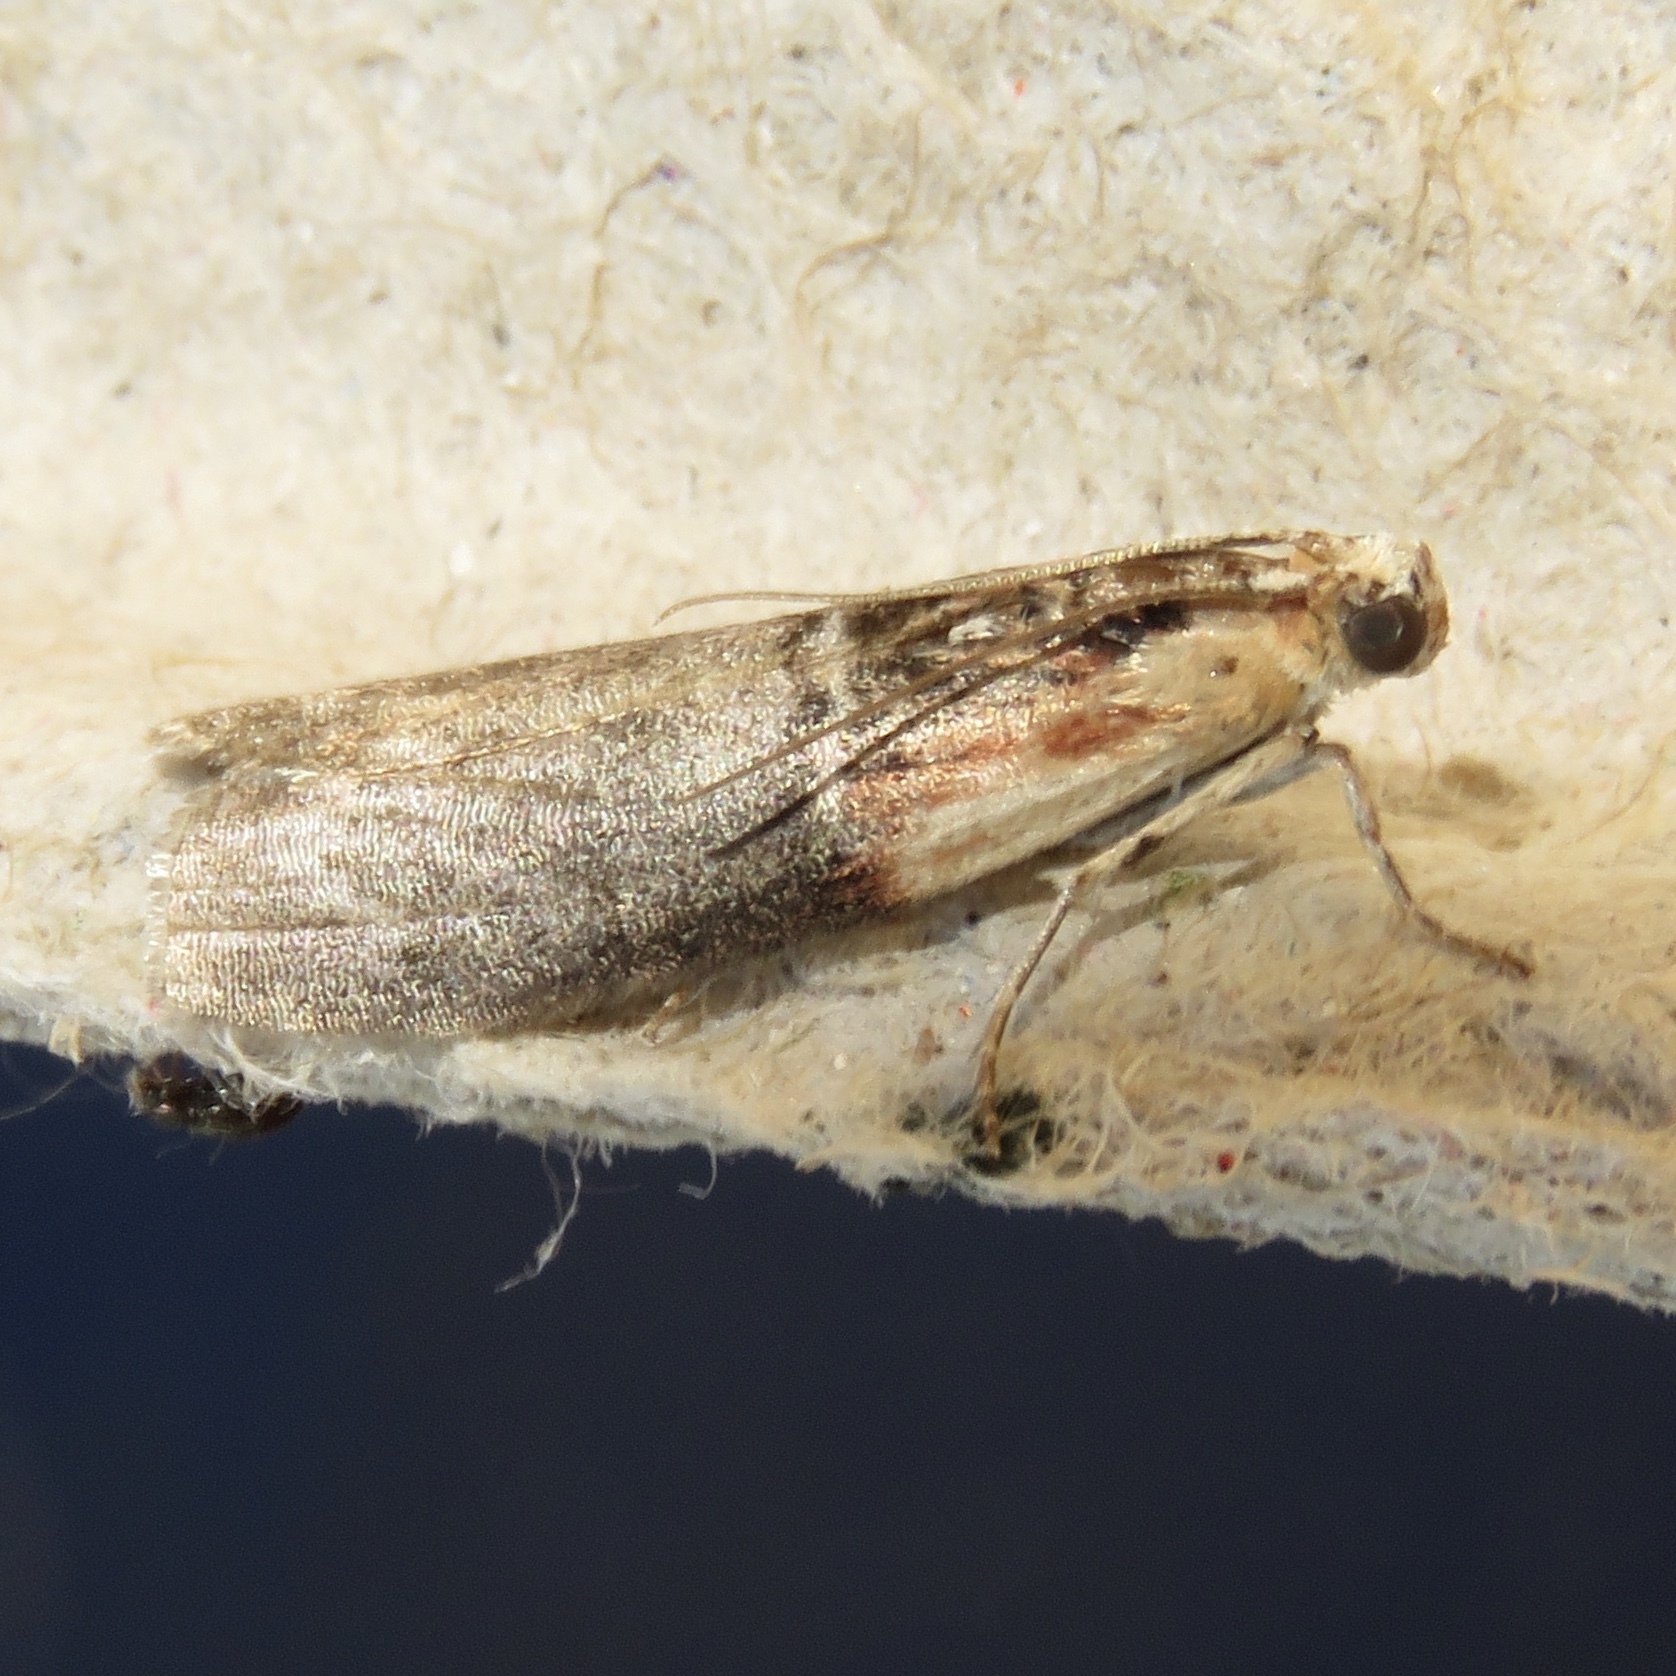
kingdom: Animalia
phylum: Arthropoda
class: Insecta
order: Lepidoptera
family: Pyralidae
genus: Sciota
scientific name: Sciota basilaris
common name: Yellow-shouldered leafroller
